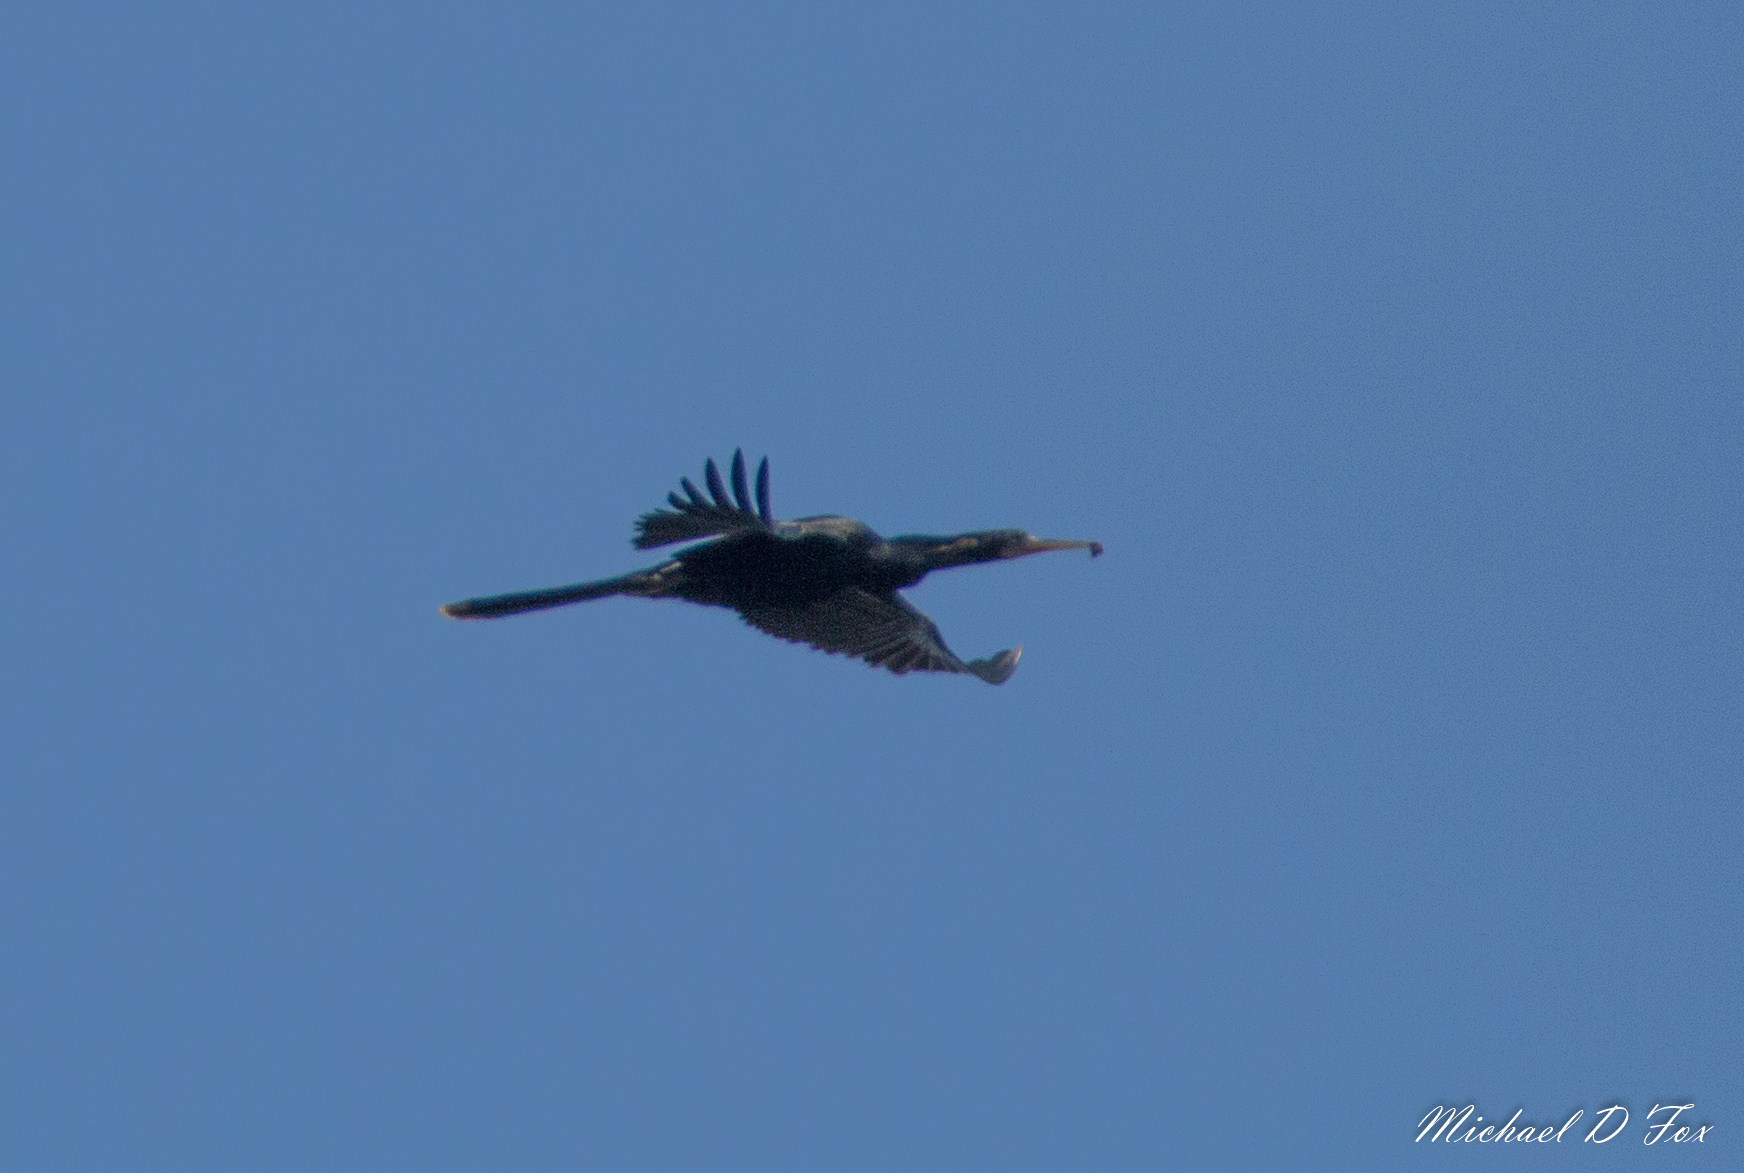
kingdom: Animalia
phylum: Chordata
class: Aves
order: Suliformes
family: Anhingidae
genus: Anhinga
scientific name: Anhinga anhinga
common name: Anhinga
